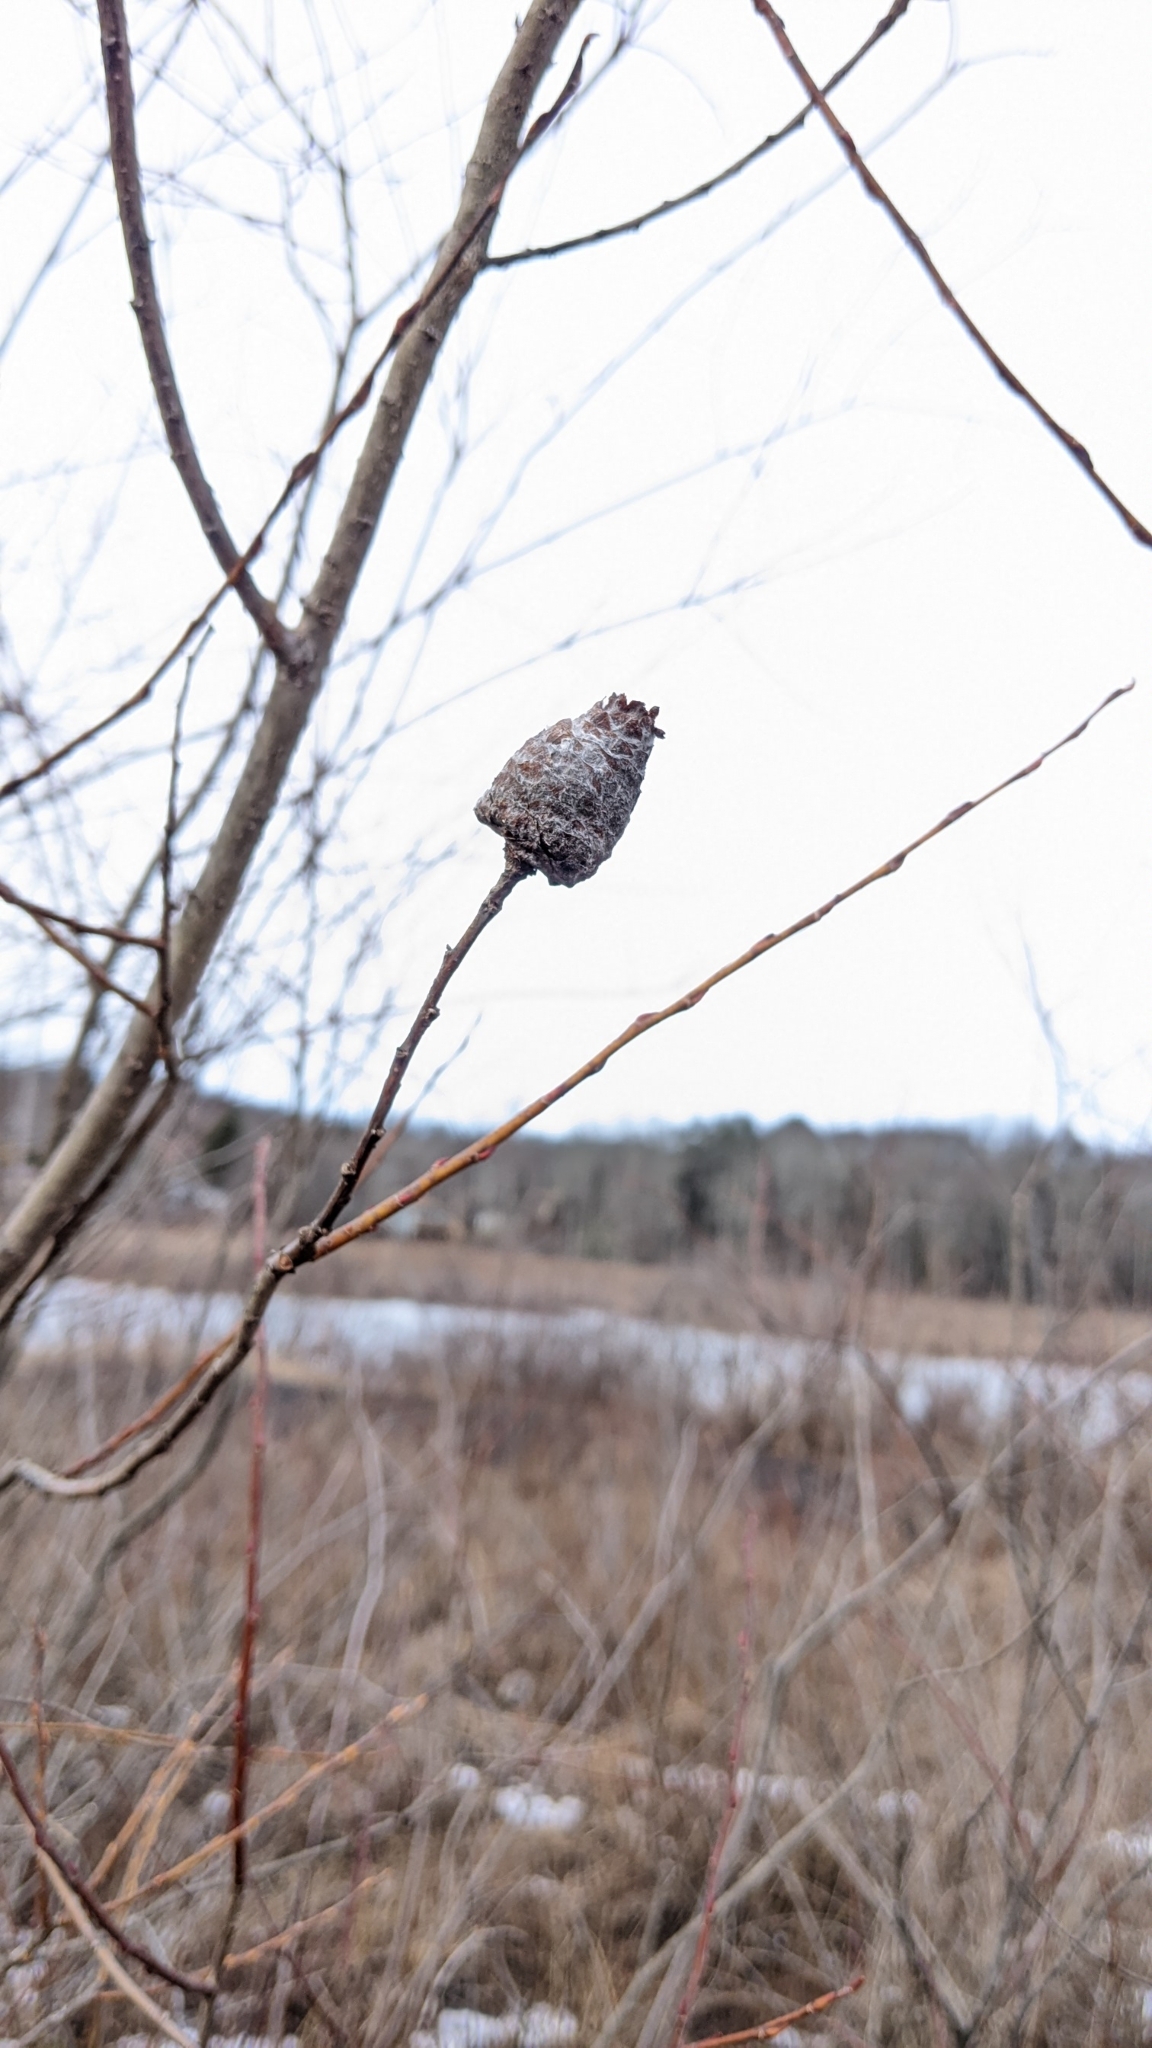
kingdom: Animalia
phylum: Arthropoda
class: Insecta
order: Diptera
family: Cecidomyiidae
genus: Rabdophaga
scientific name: Rabdophaga strobiloides
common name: Willow pinecone gall midge
